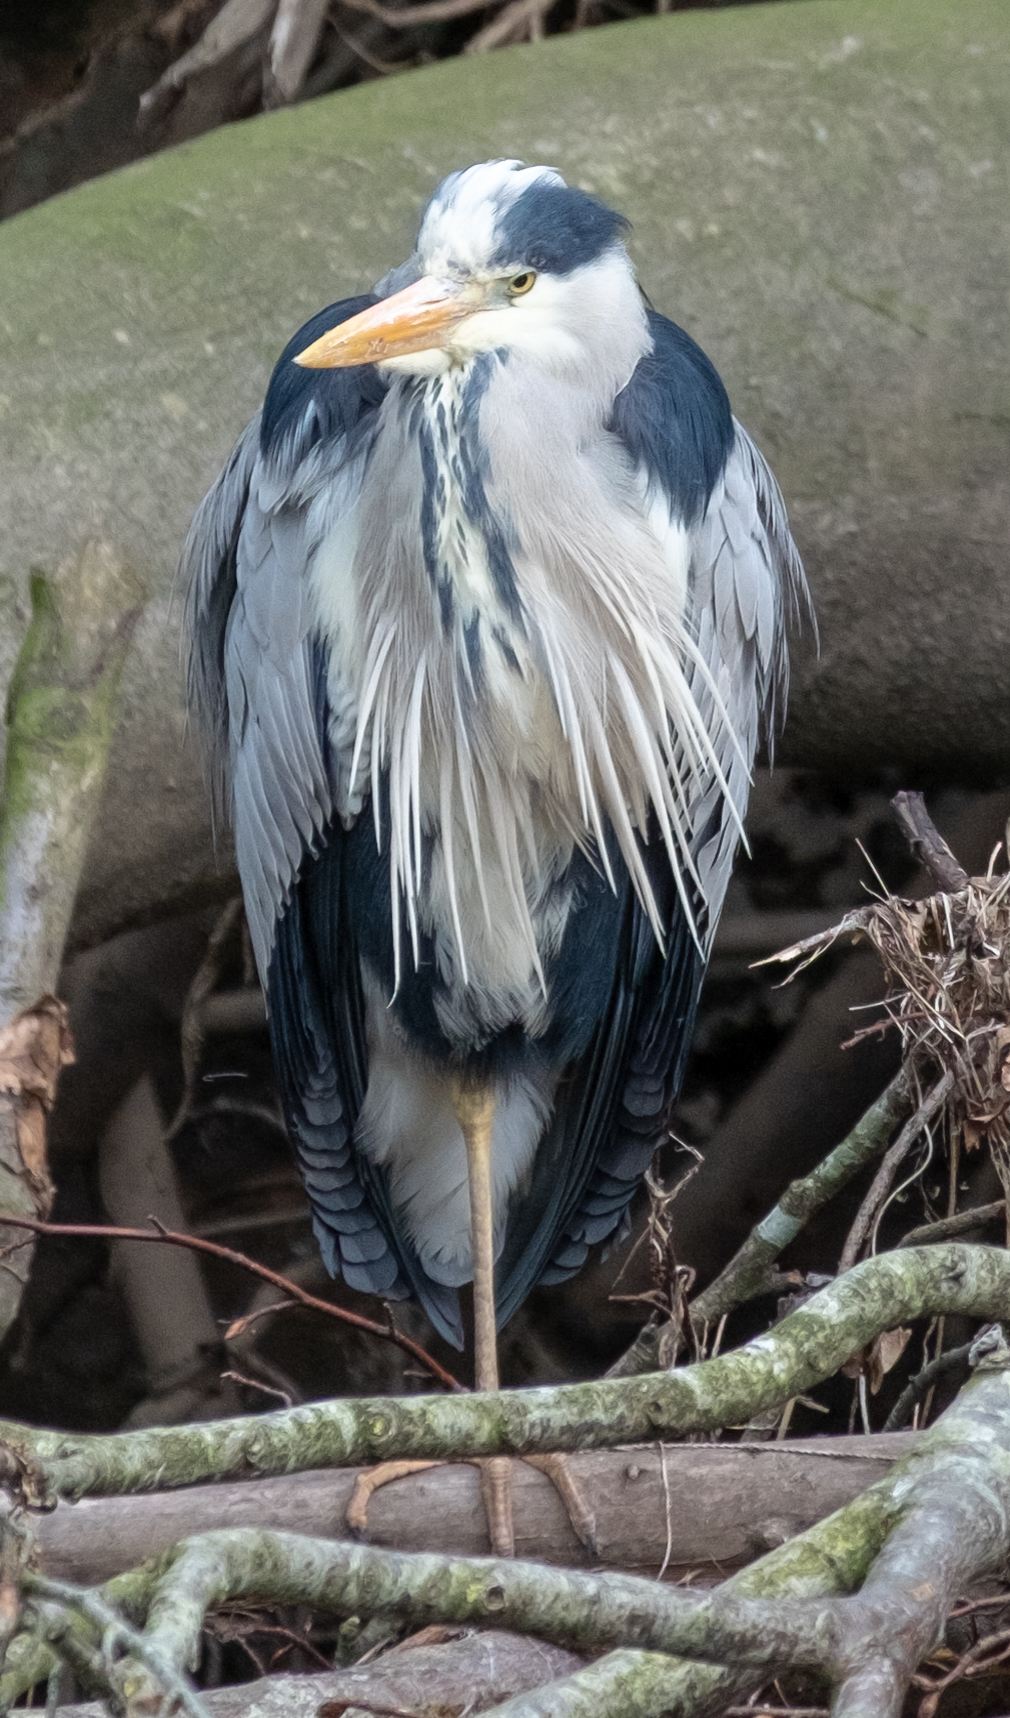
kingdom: Animalia
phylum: Chordata
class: Aves
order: Pelecaniformes
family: Ardeidae
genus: Ardea
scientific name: Ardea cinerea
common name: Grey heron
